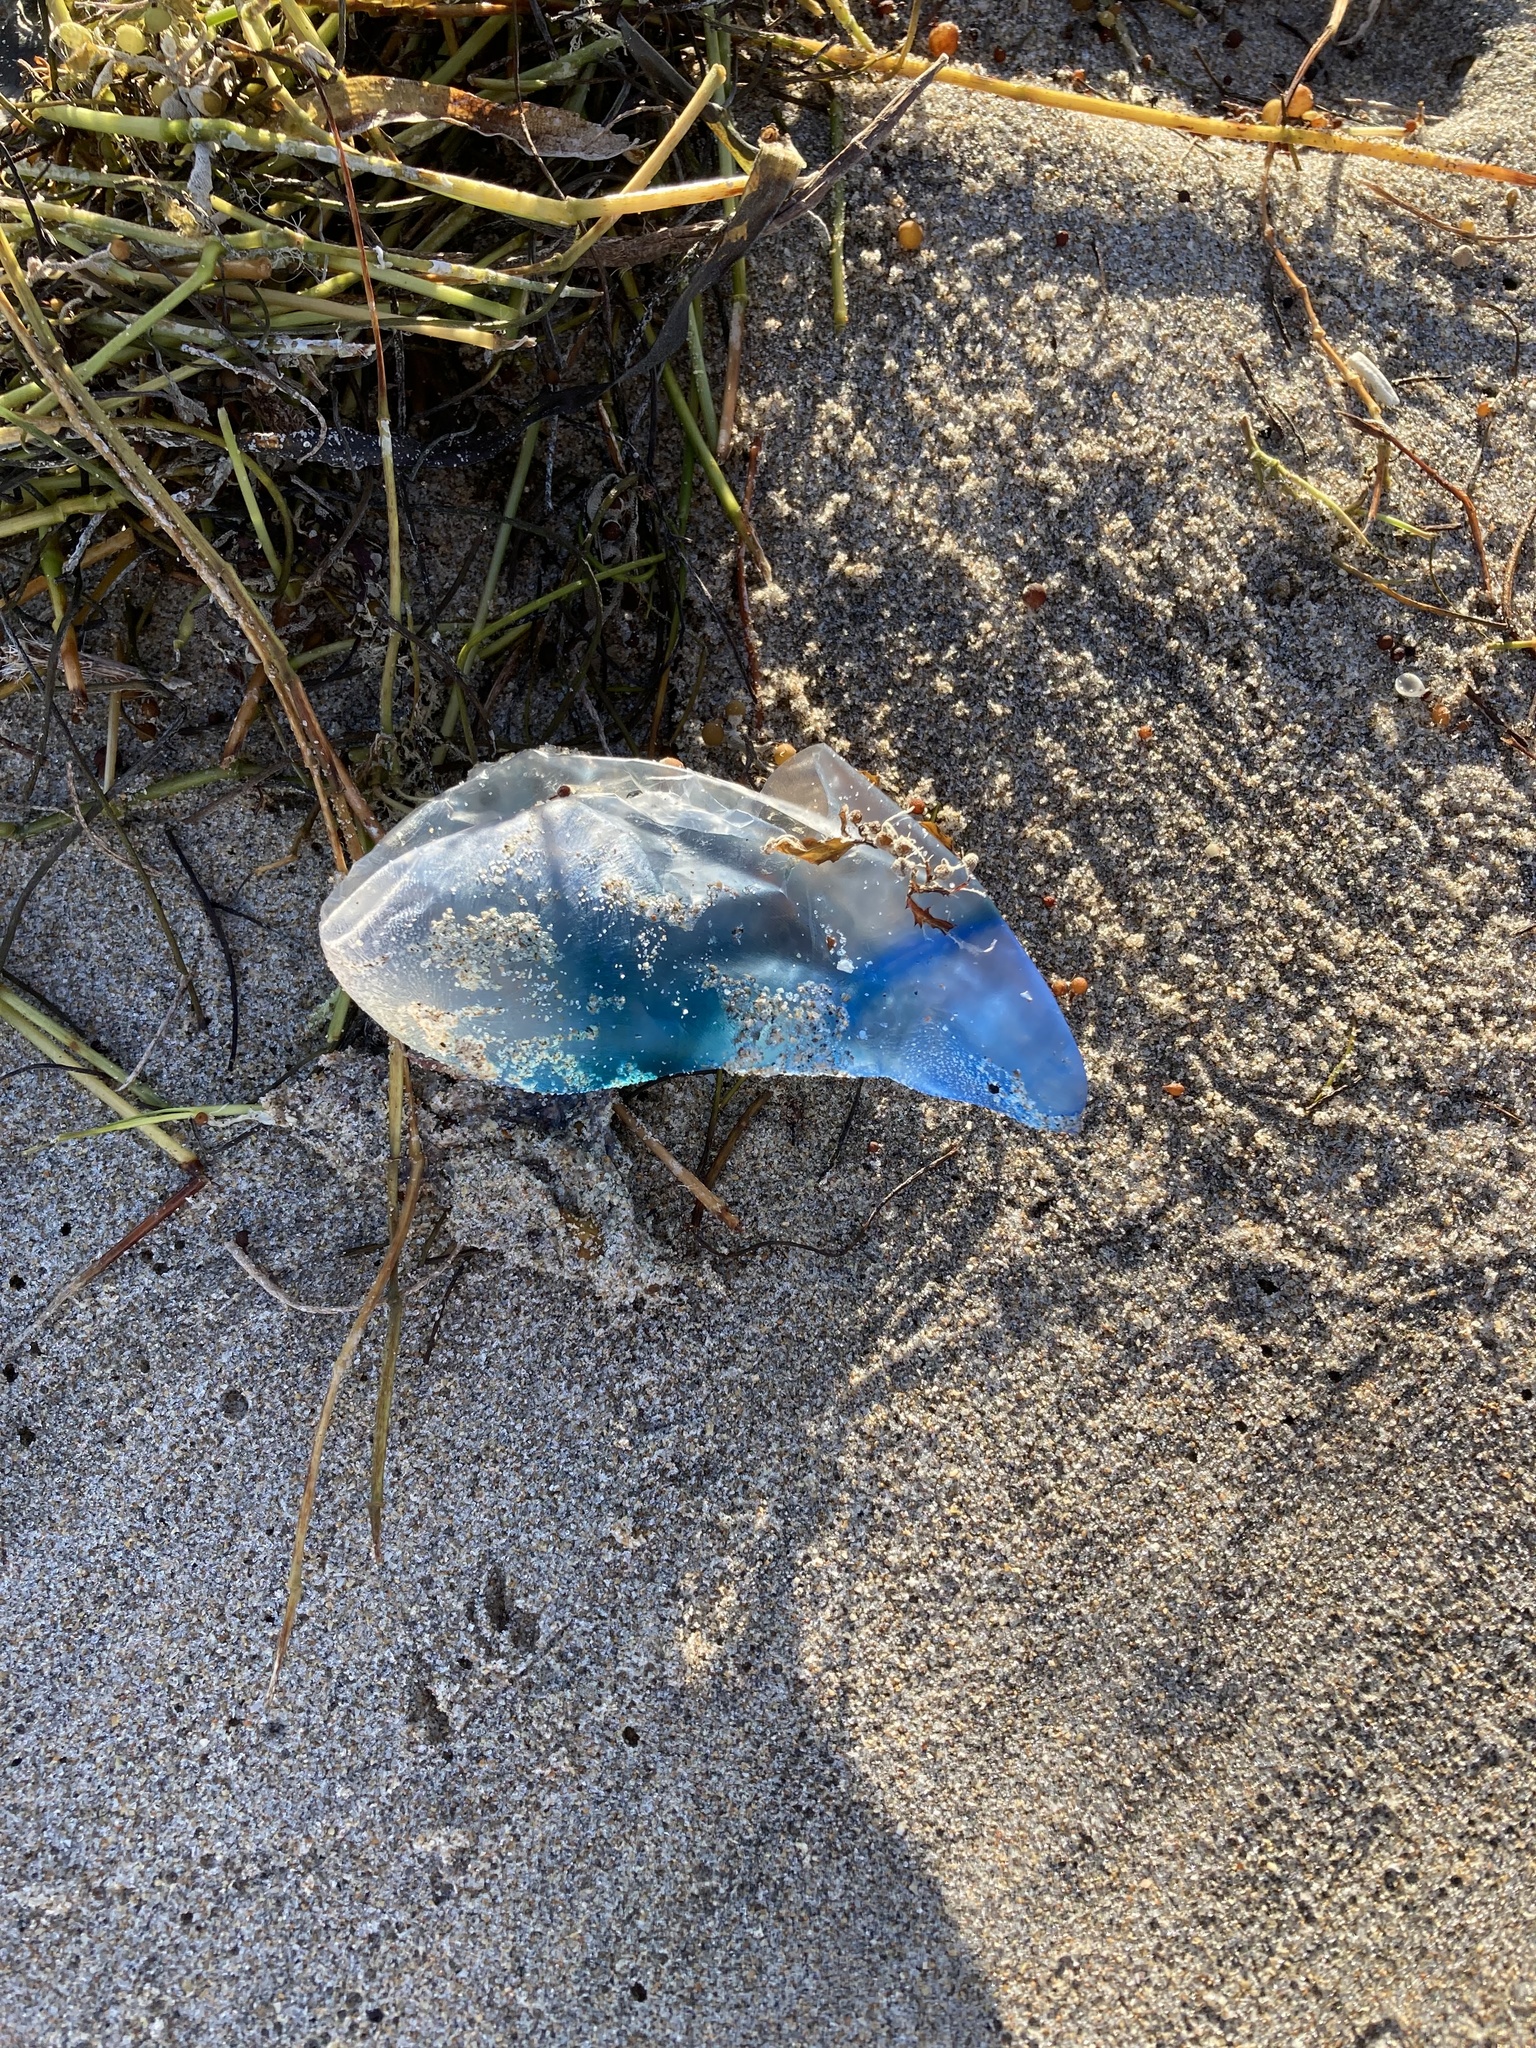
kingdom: Animalia
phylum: Cnidaria
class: Hydrozoa
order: Siphonophorae
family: Physaliidae
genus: Physalia
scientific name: Physalia physalis
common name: Portuguese man-of-war
